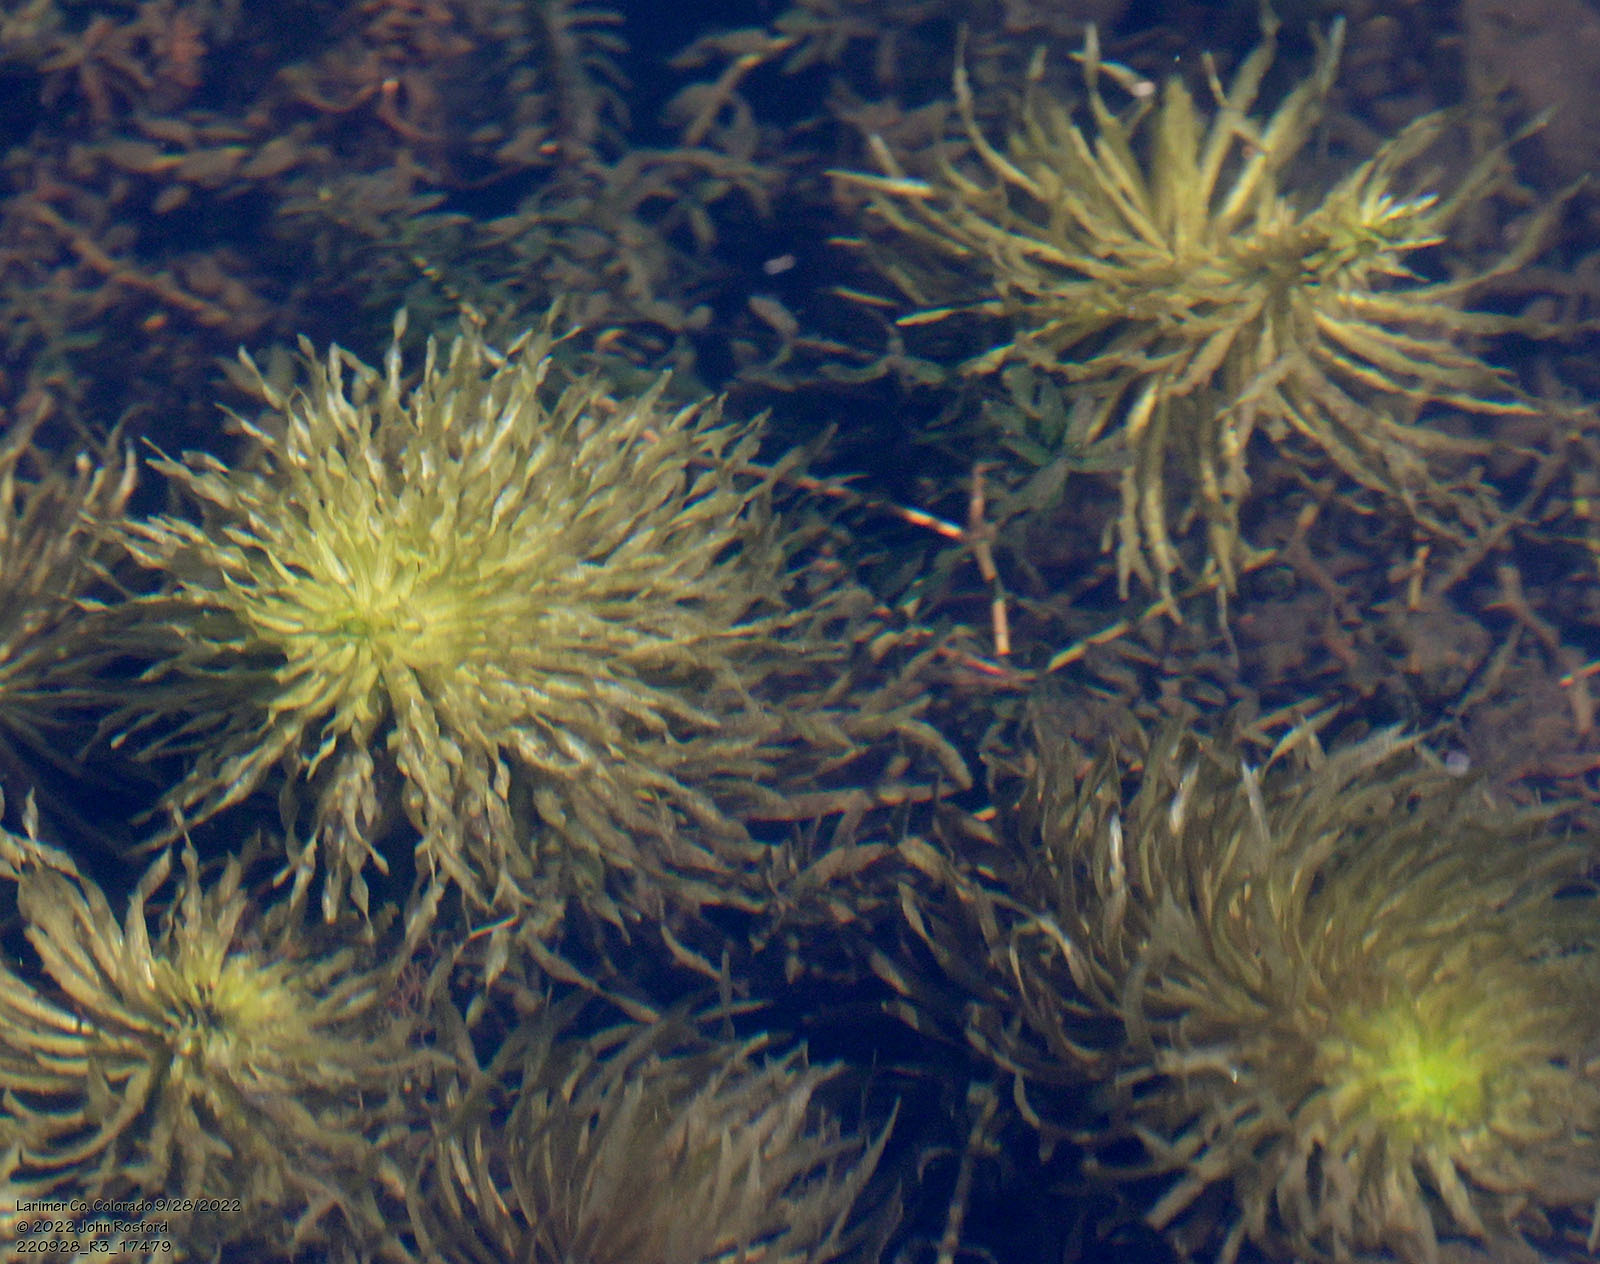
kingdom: Plantae
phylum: Tracheophyta
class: Magnoliopsida
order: Lamiales
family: Plantaginaceae
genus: Hippuris
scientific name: Hippuris vulgaris
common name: Mare's-tail
